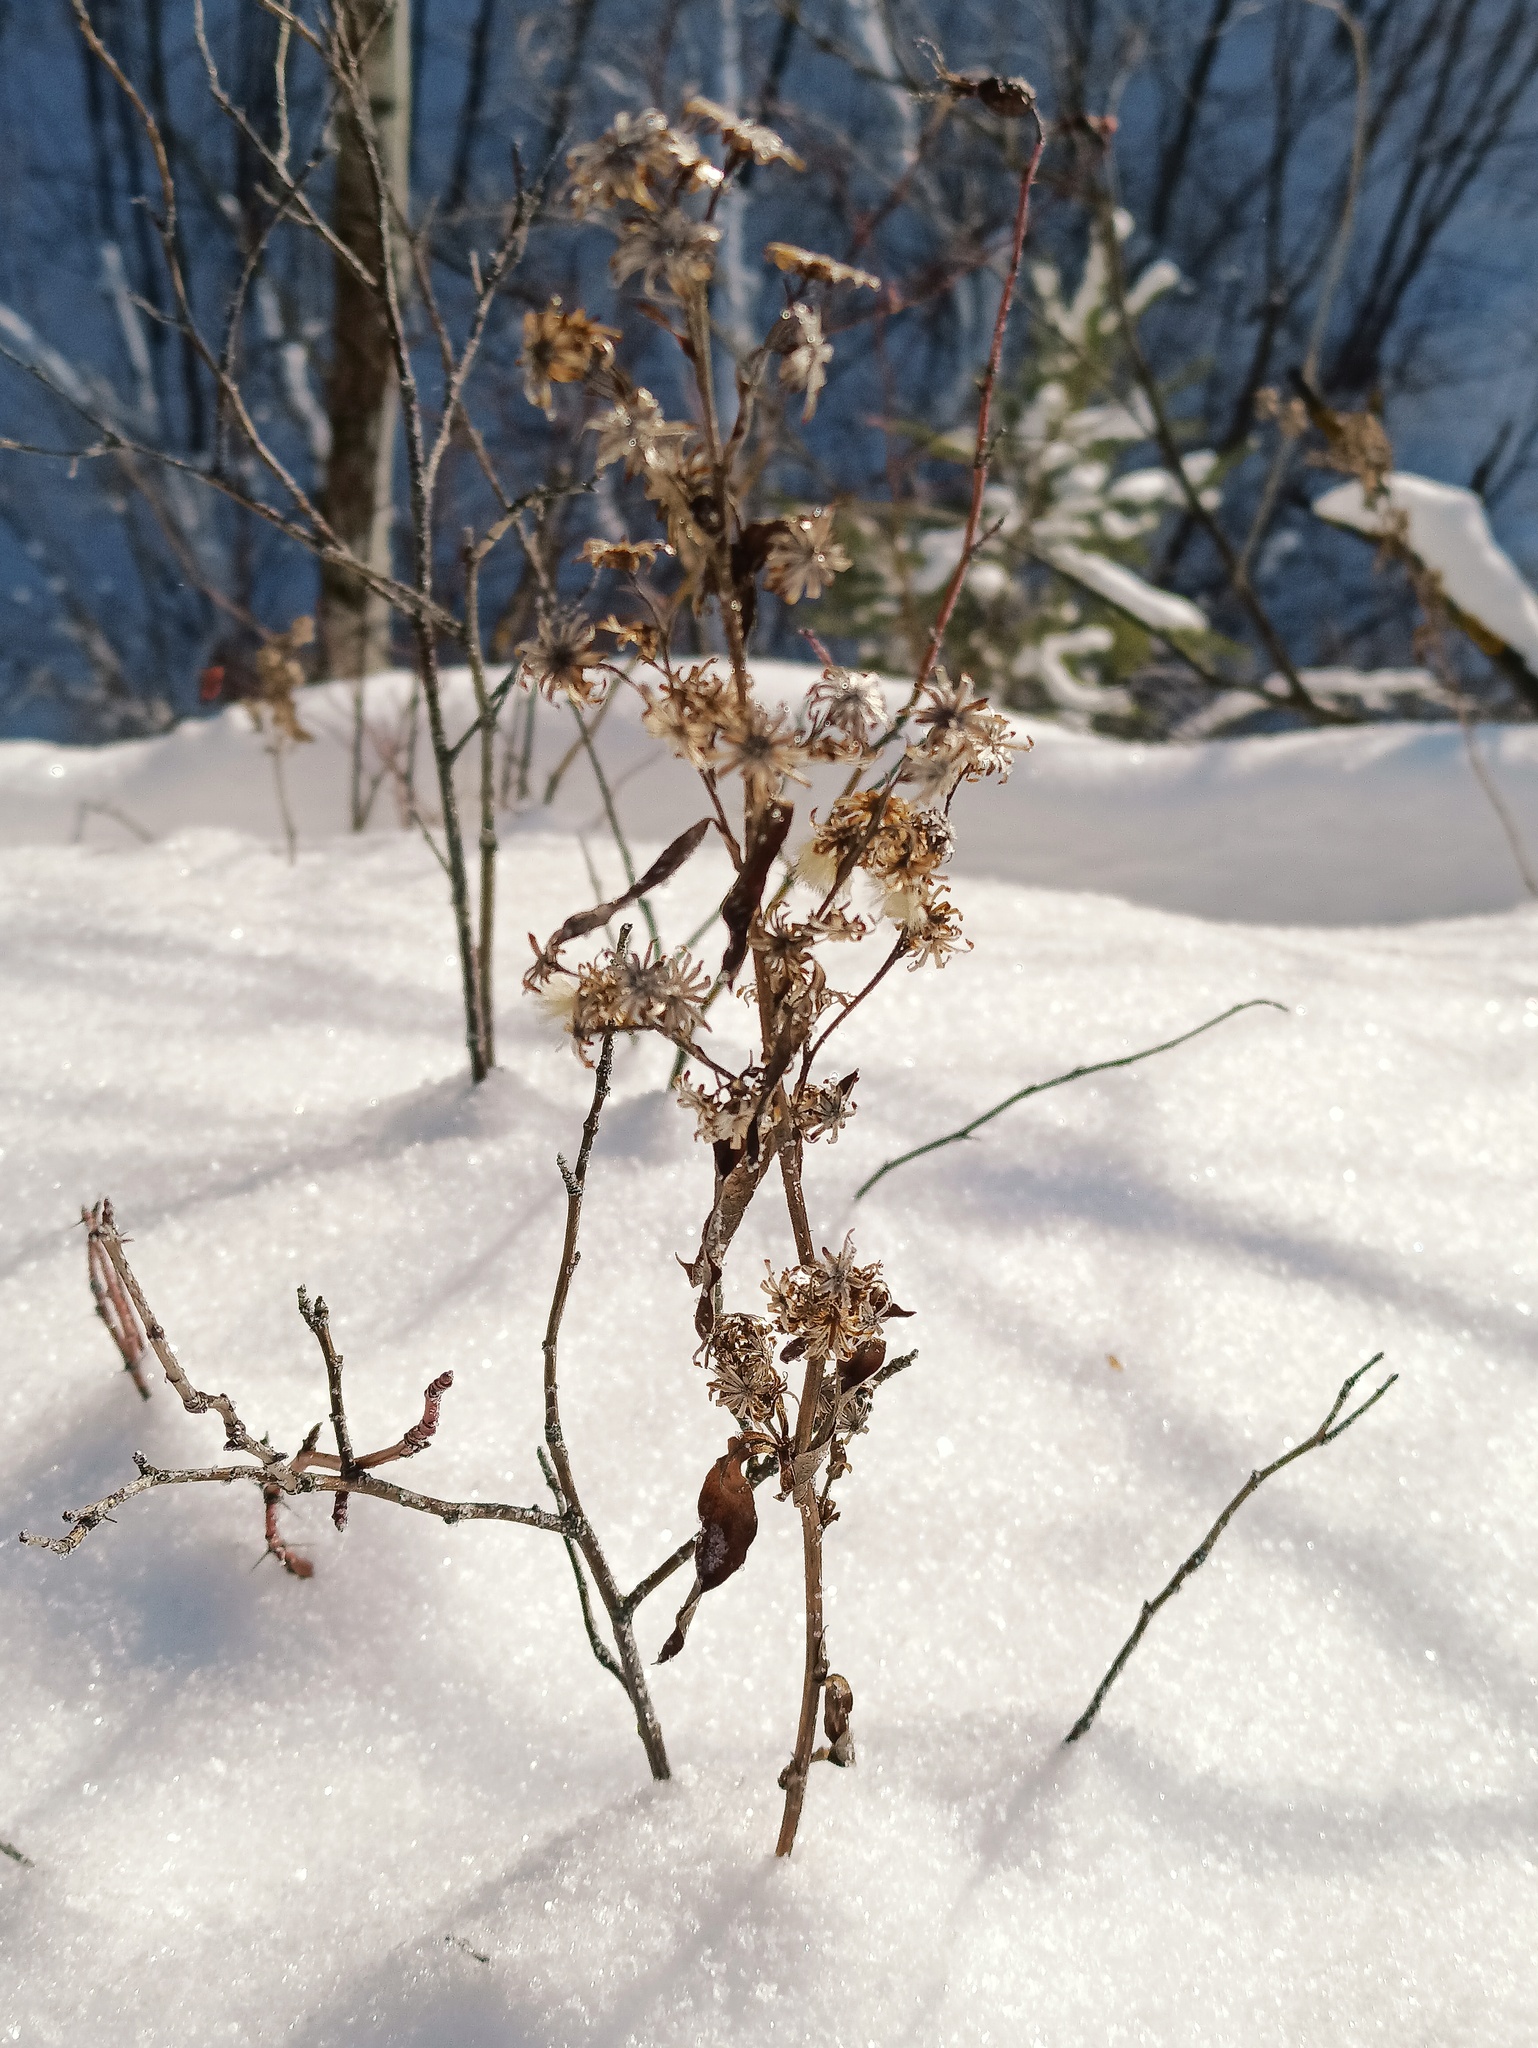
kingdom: Plantae
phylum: Tracheophyta
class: Magnoliopsida
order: Asterales
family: Asteraceae
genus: Solidago
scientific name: Solidago virgaurea
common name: Goldenrod
